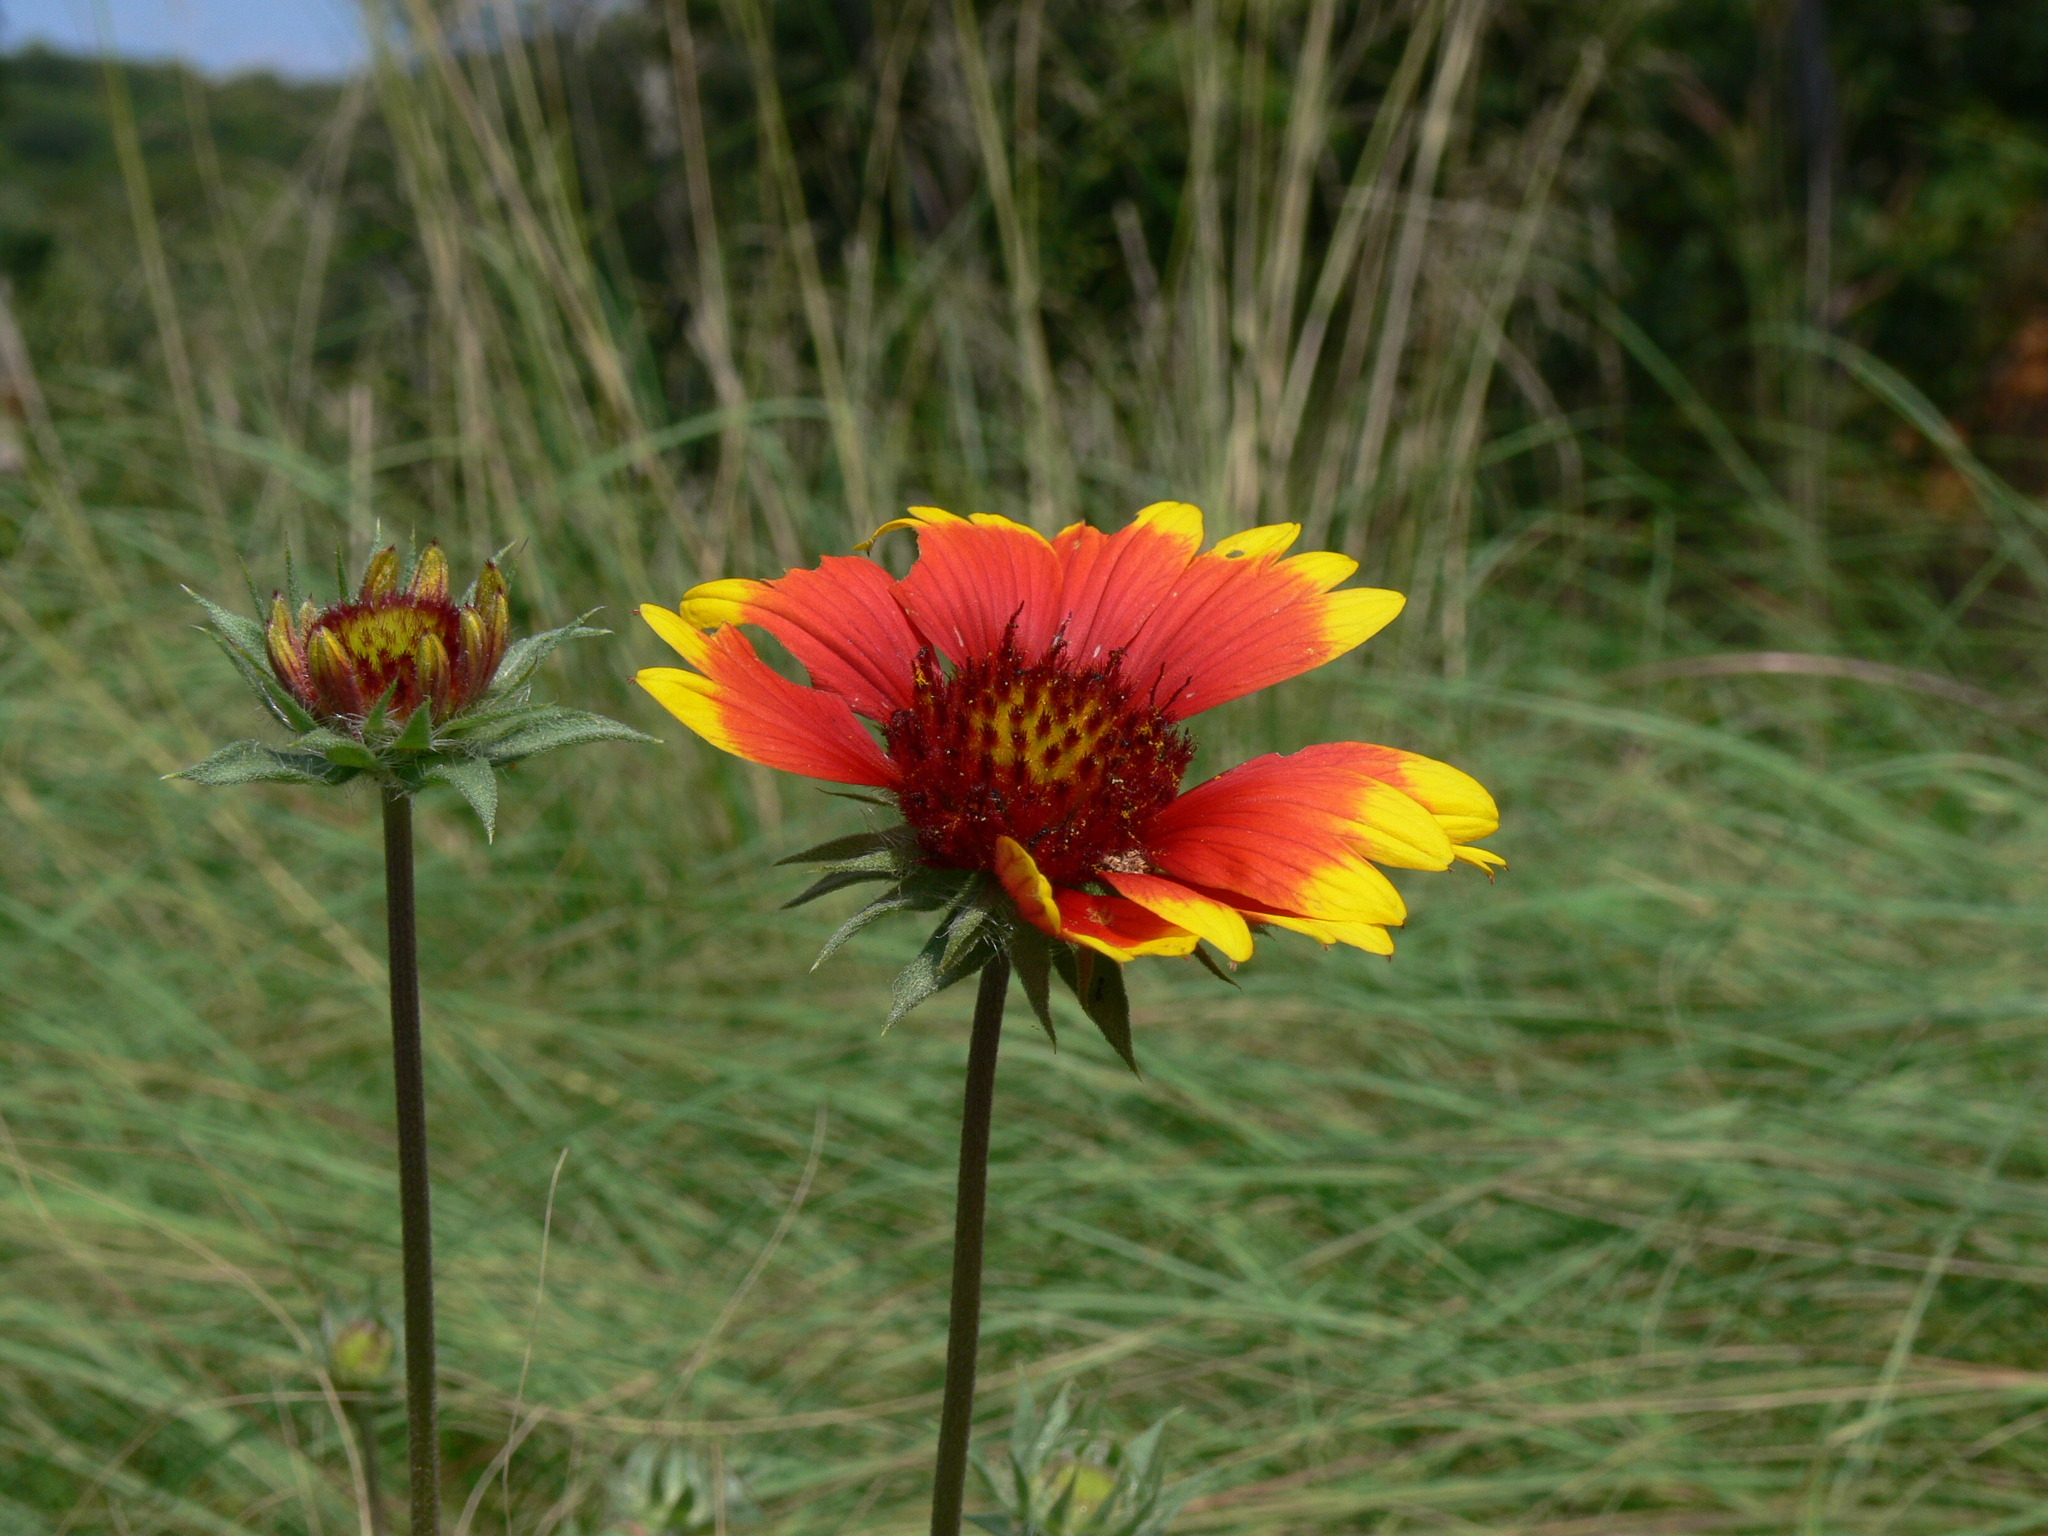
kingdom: Plantae
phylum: Tracheophyta
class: Magnoliopsida
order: Asterales
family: Asteraceae
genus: Gaillardia
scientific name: Gaillardia pulchella
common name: Firewheel
